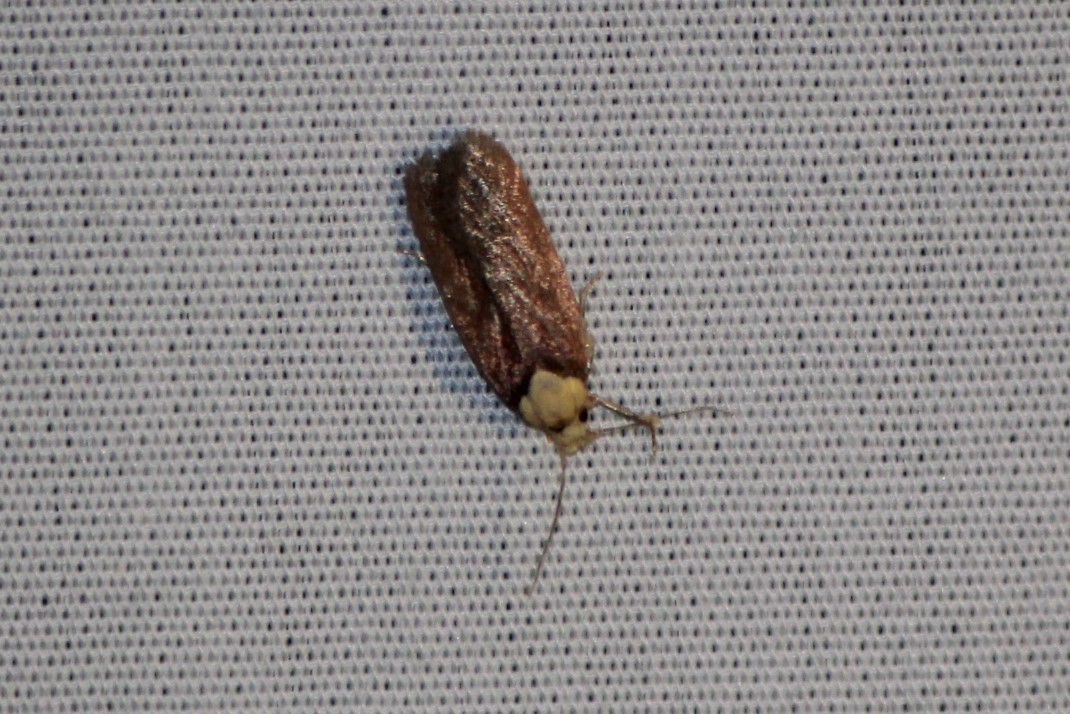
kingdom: Animalia
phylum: Arthropoda
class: Insecta
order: Lepidoptera
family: Depressariidae
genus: Depressaria
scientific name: Depressaria depressana
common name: Lost flat-body
